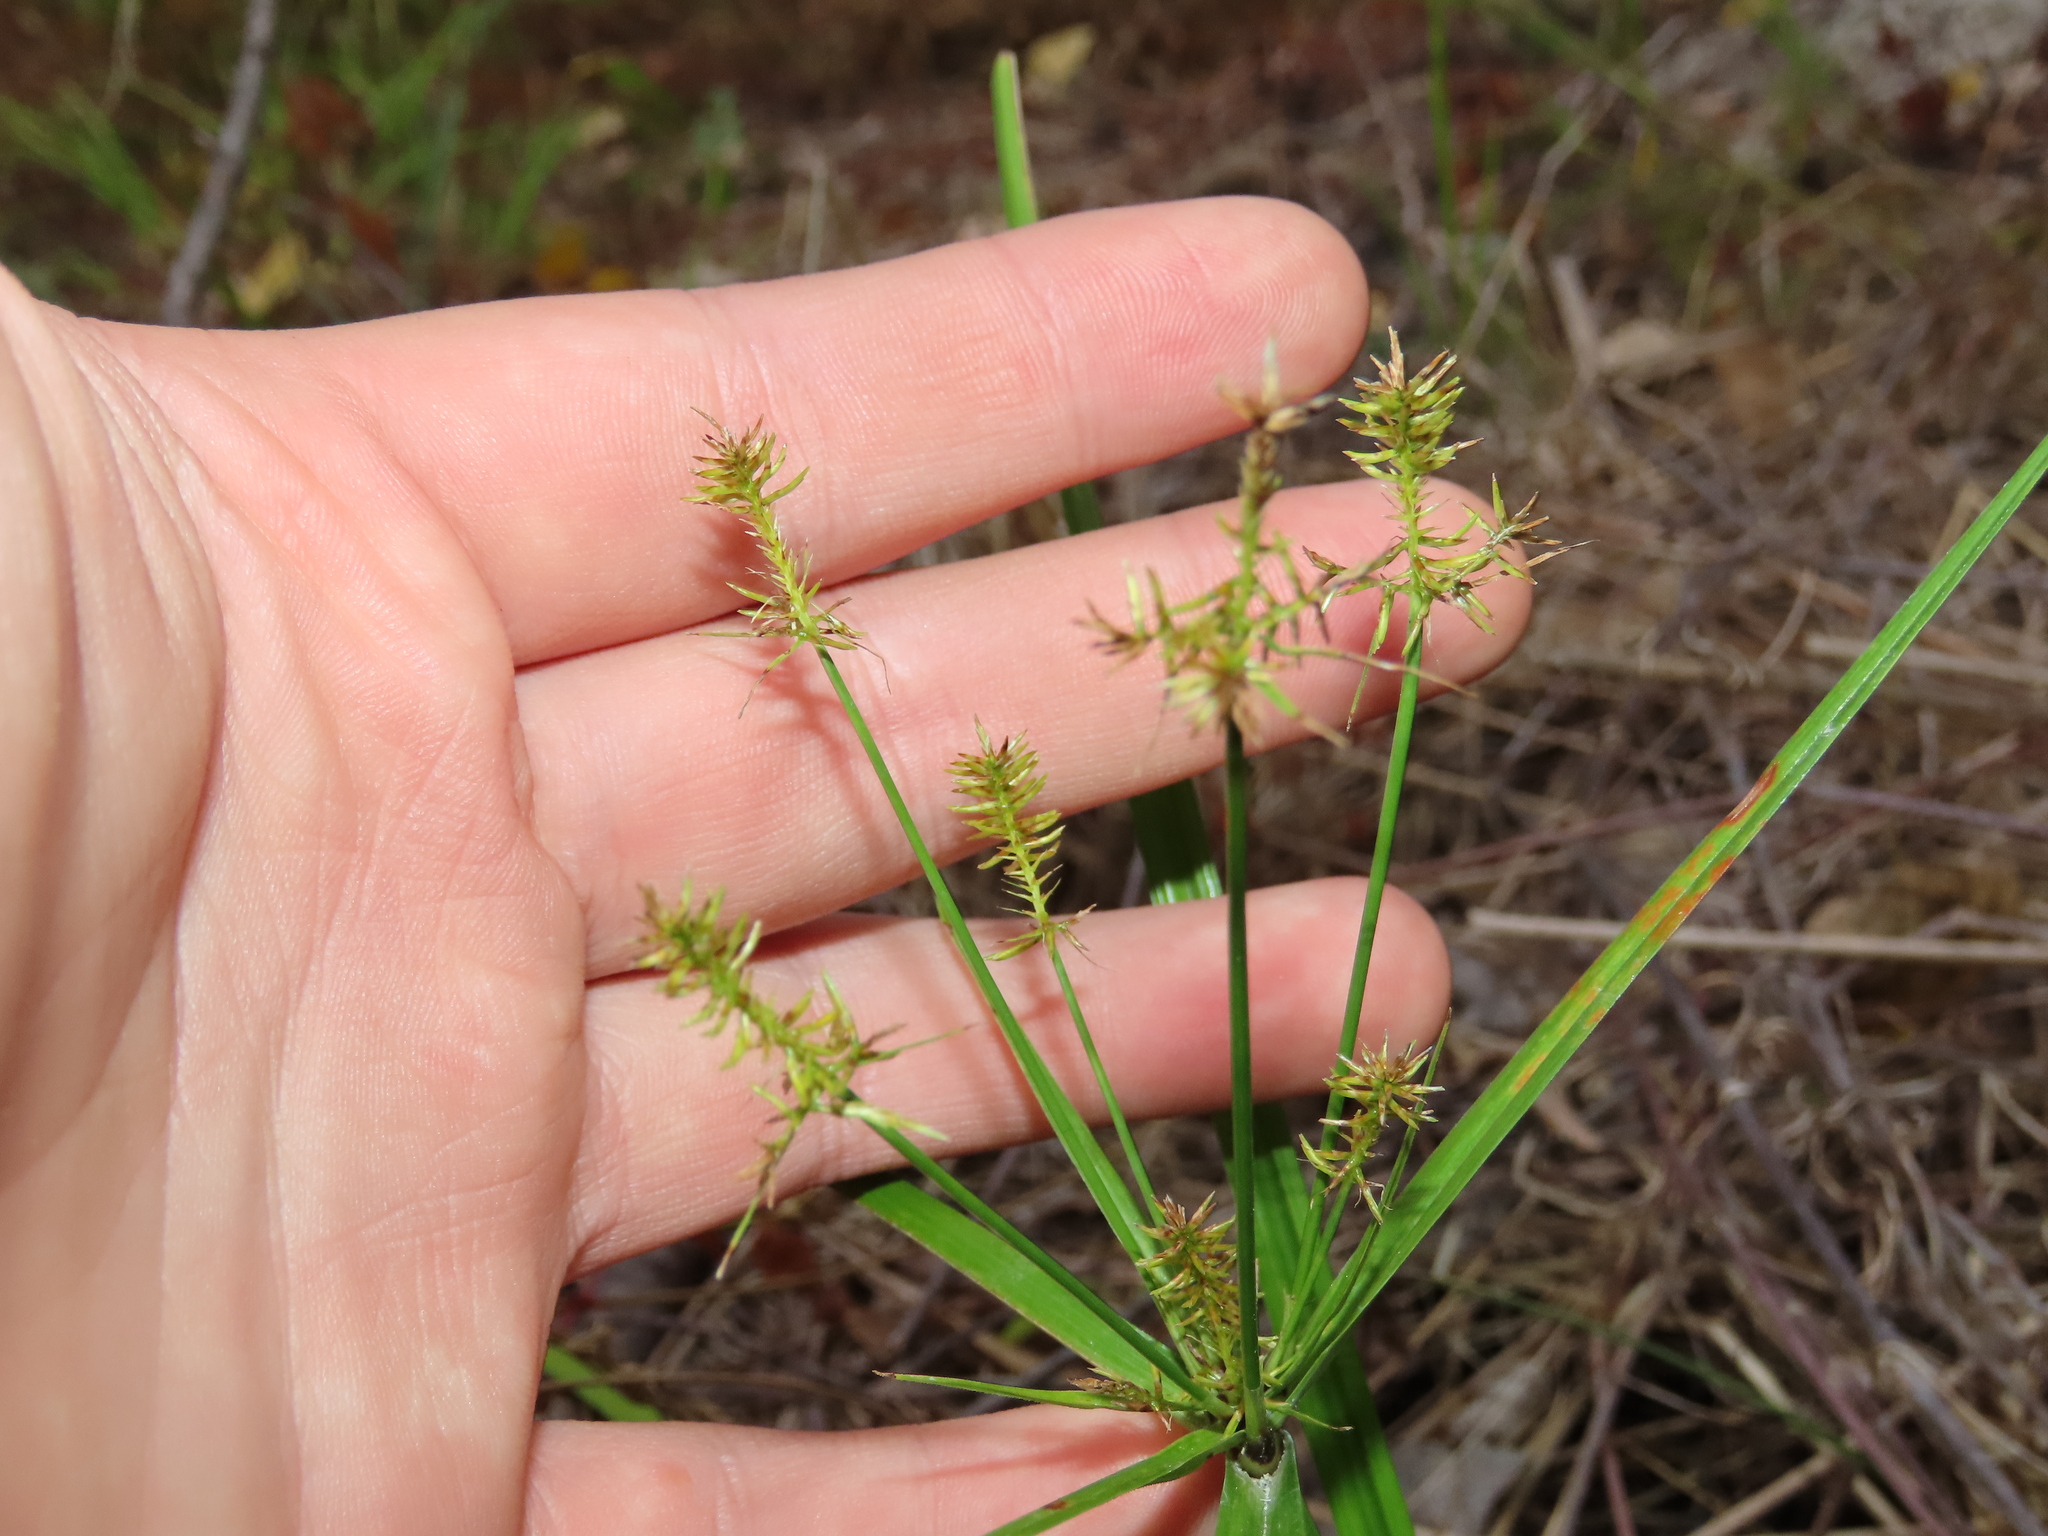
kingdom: Plantae
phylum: Tracheophyta
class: Liliopsida
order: Poales
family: Cyperaceae
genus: Cyperus
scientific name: Cyperus esculentus
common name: Yellow nutsedge
